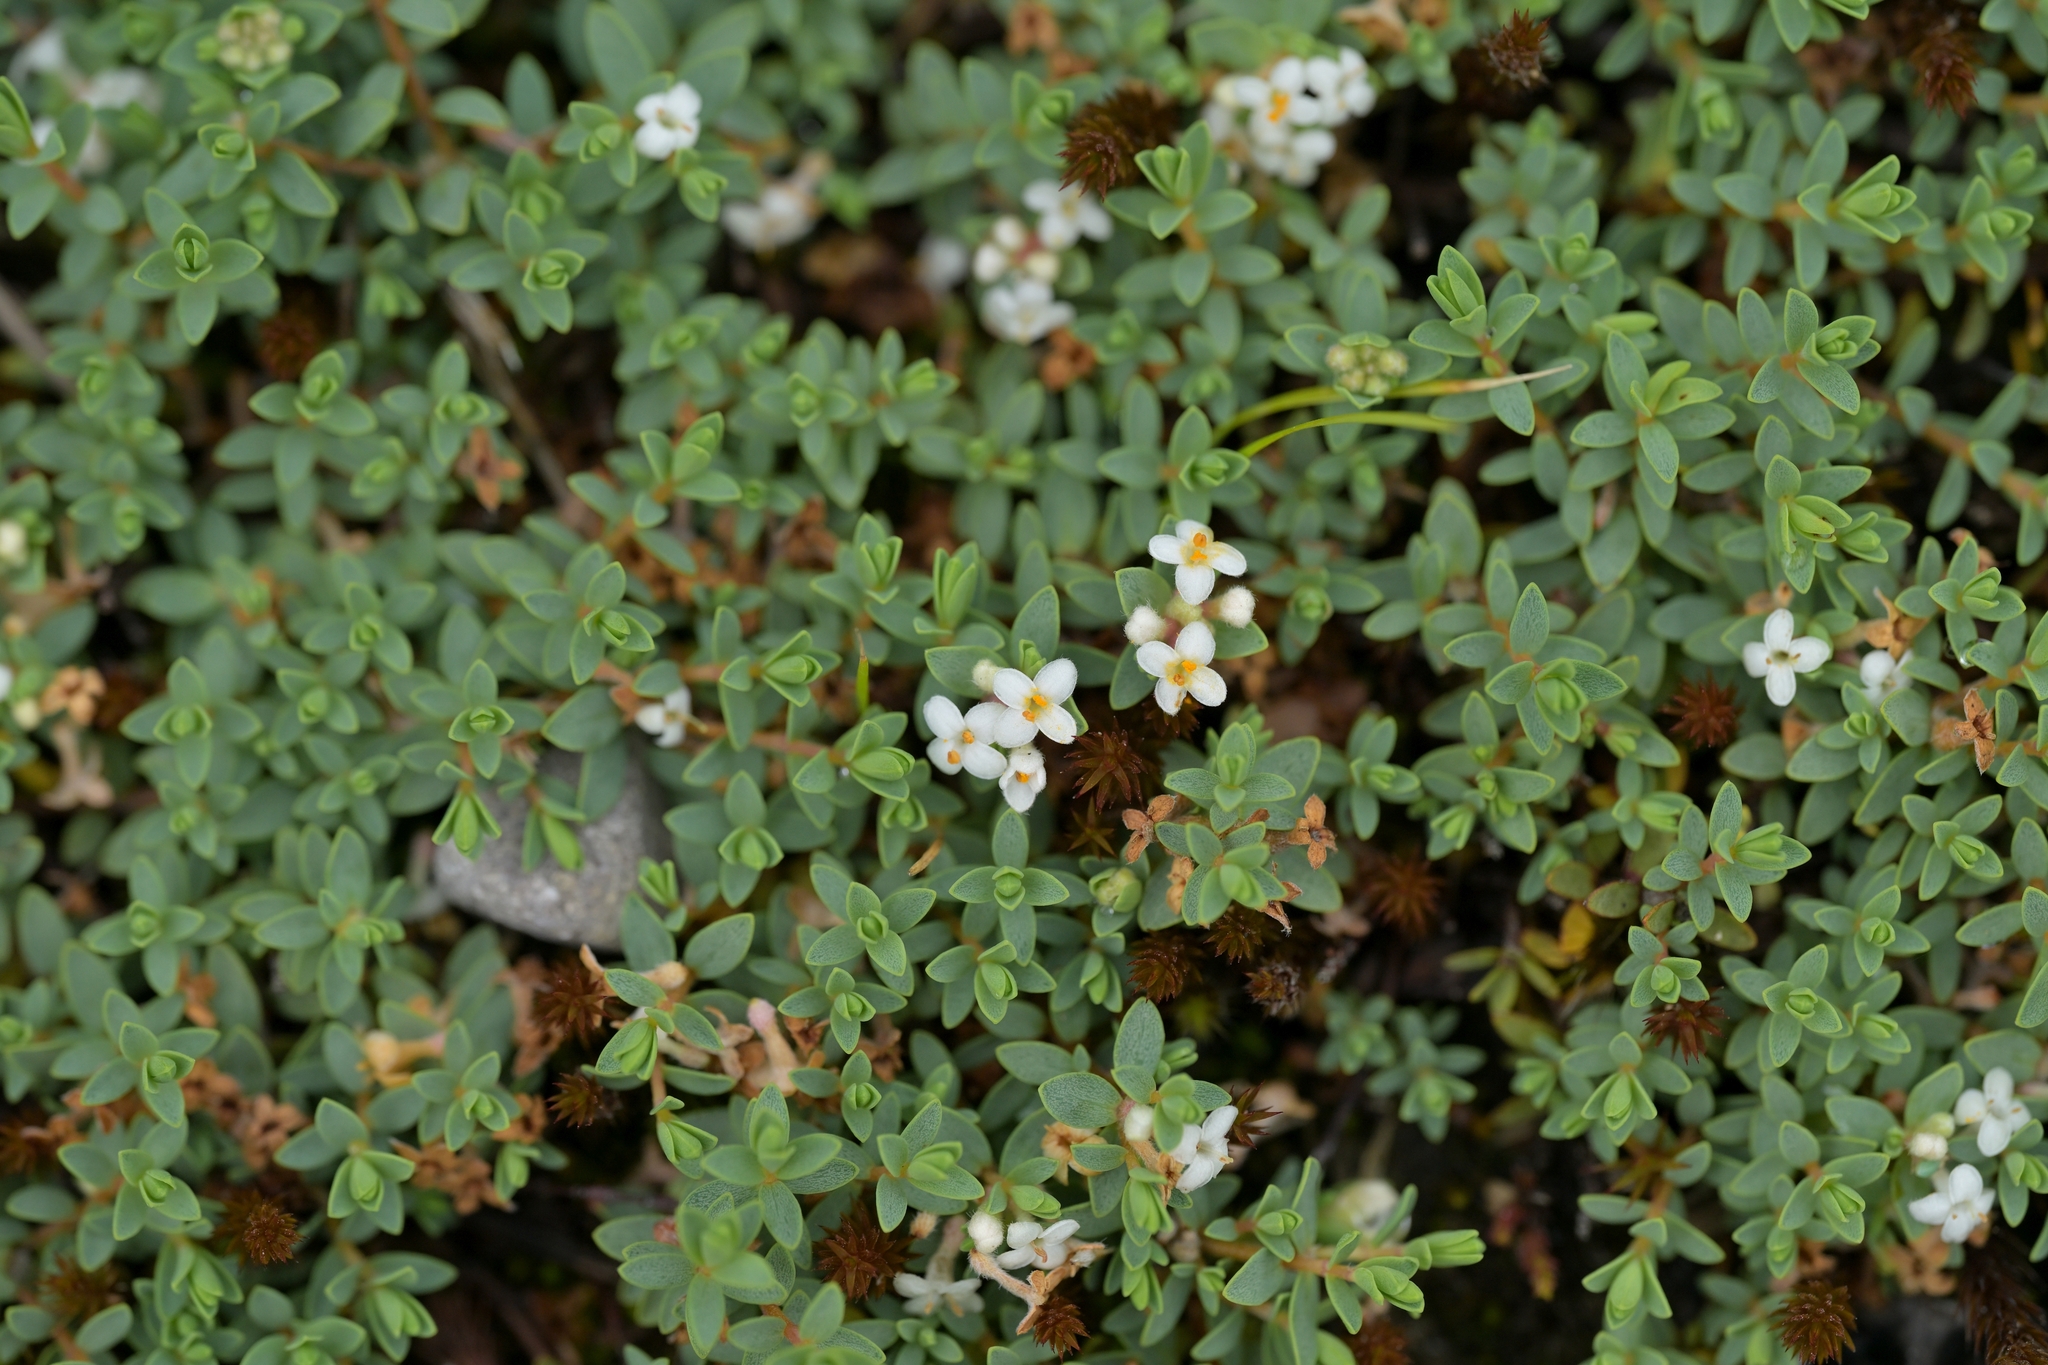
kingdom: Plantae
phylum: Tracheophyta
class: Magnoliopsida
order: Malvales
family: Thymelaeaceae
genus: Pimelea
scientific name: Pimelea prostrata
